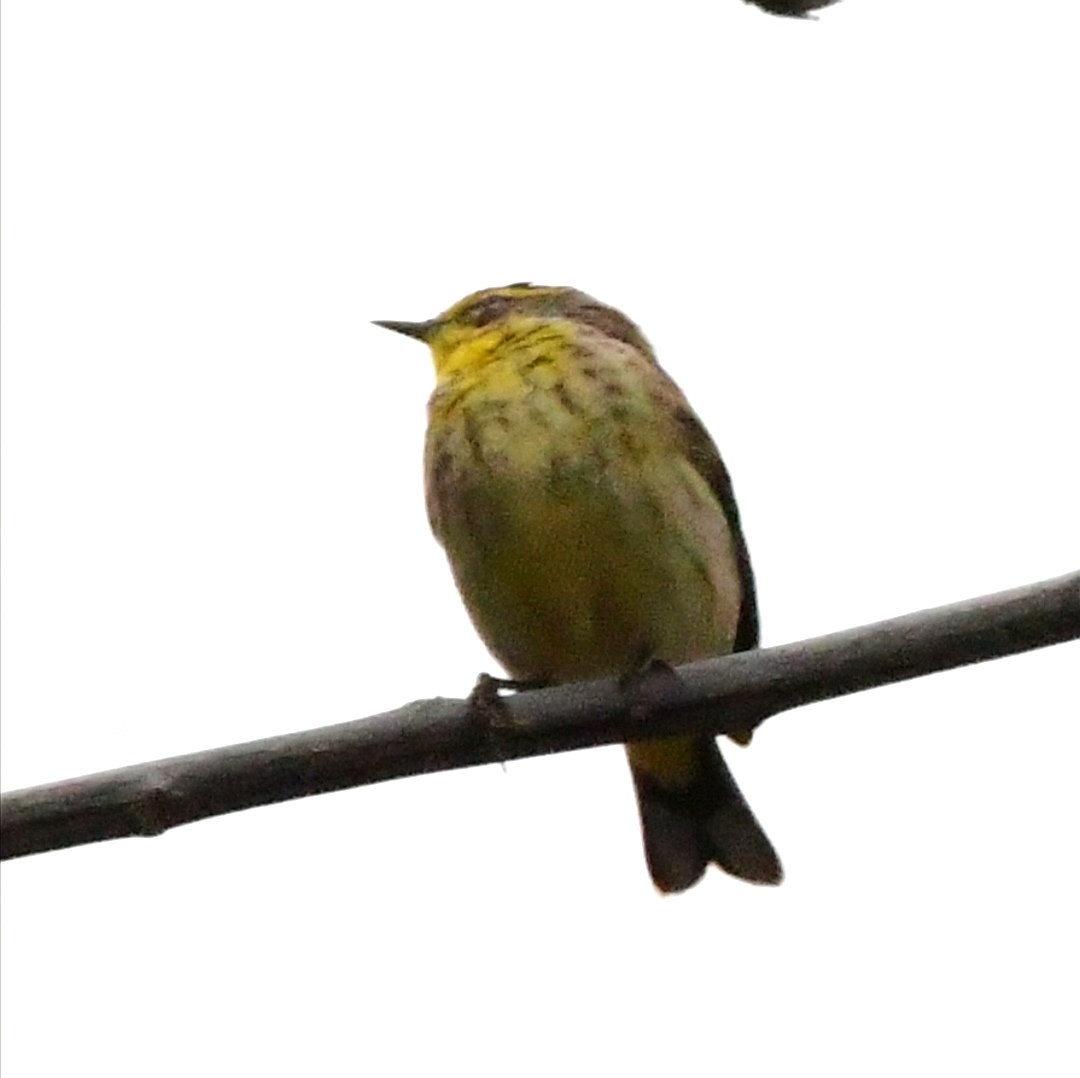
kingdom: Animalia
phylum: Chordata
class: Aves
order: Passeriformes
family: Parulidae
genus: Setophaga
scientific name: Setophaga palmarum
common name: Palm warbler
